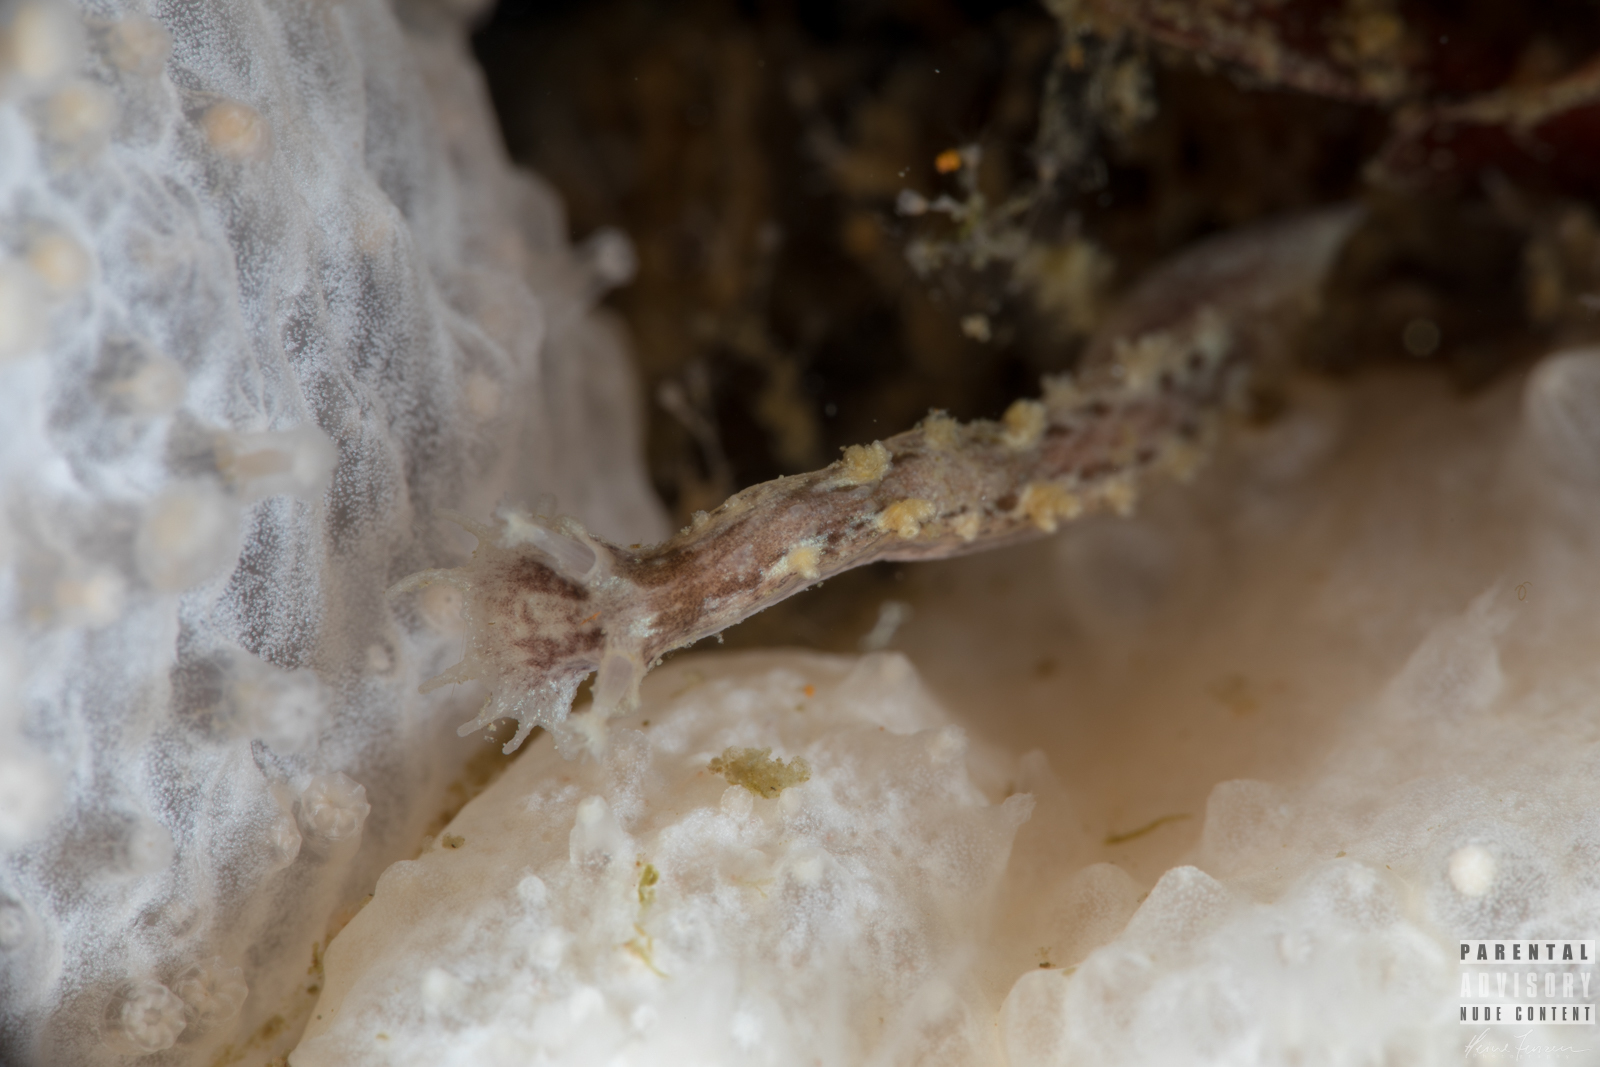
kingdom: Animalia
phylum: Mollusca
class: Gastropoda
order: Nudibranchia
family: Tritoniidae
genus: Duvaucelia
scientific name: Duvaucelia plebeia
